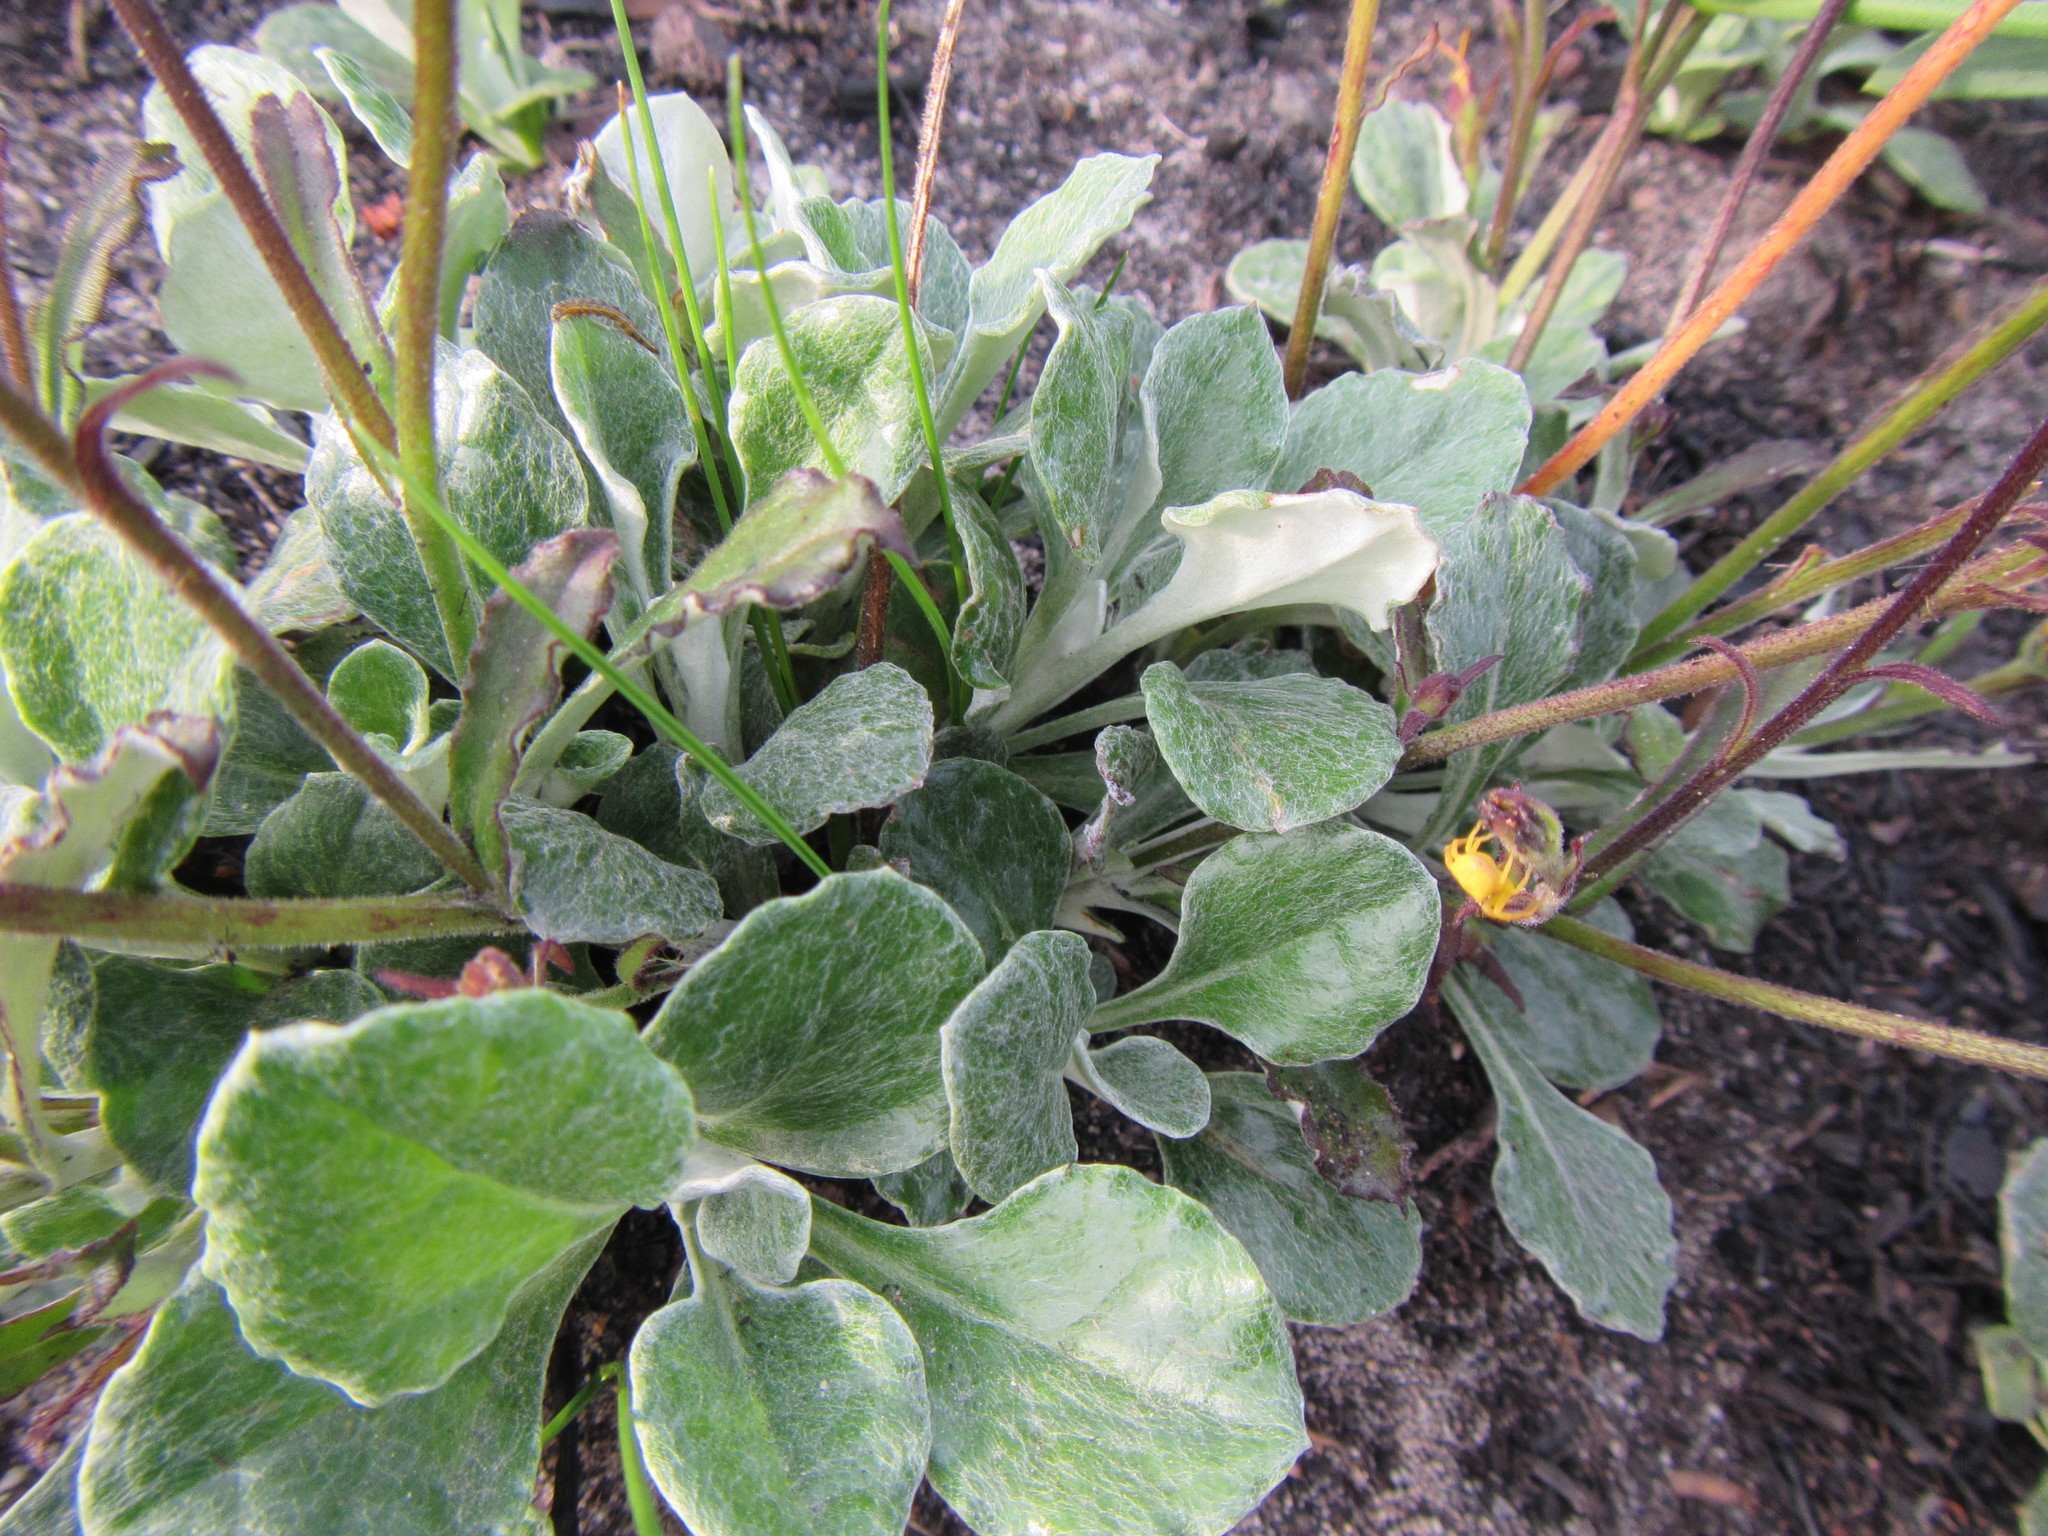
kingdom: Plantae
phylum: Tracheophyta
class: Magnoliopsida
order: Asterales
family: Asteraceae
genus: Osteospermum
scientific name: Osteospermum tomentosum
